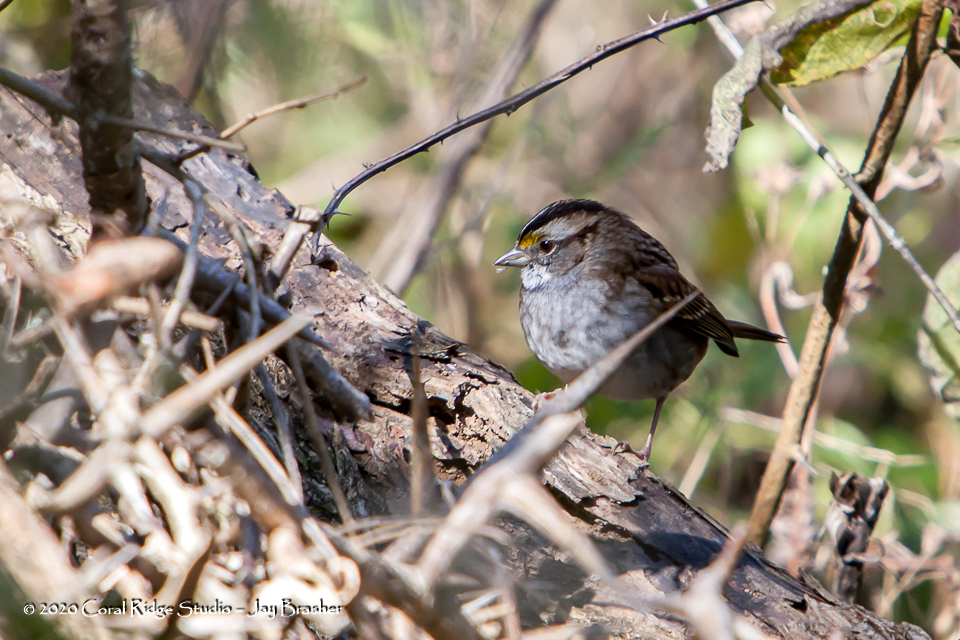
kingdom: Animalia
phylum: Chordata
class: Aves
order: Passeriformes
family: Passerellidae
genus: Zonotrichia
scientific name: Zonotrichia albicollis
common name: White-throated sparrow
